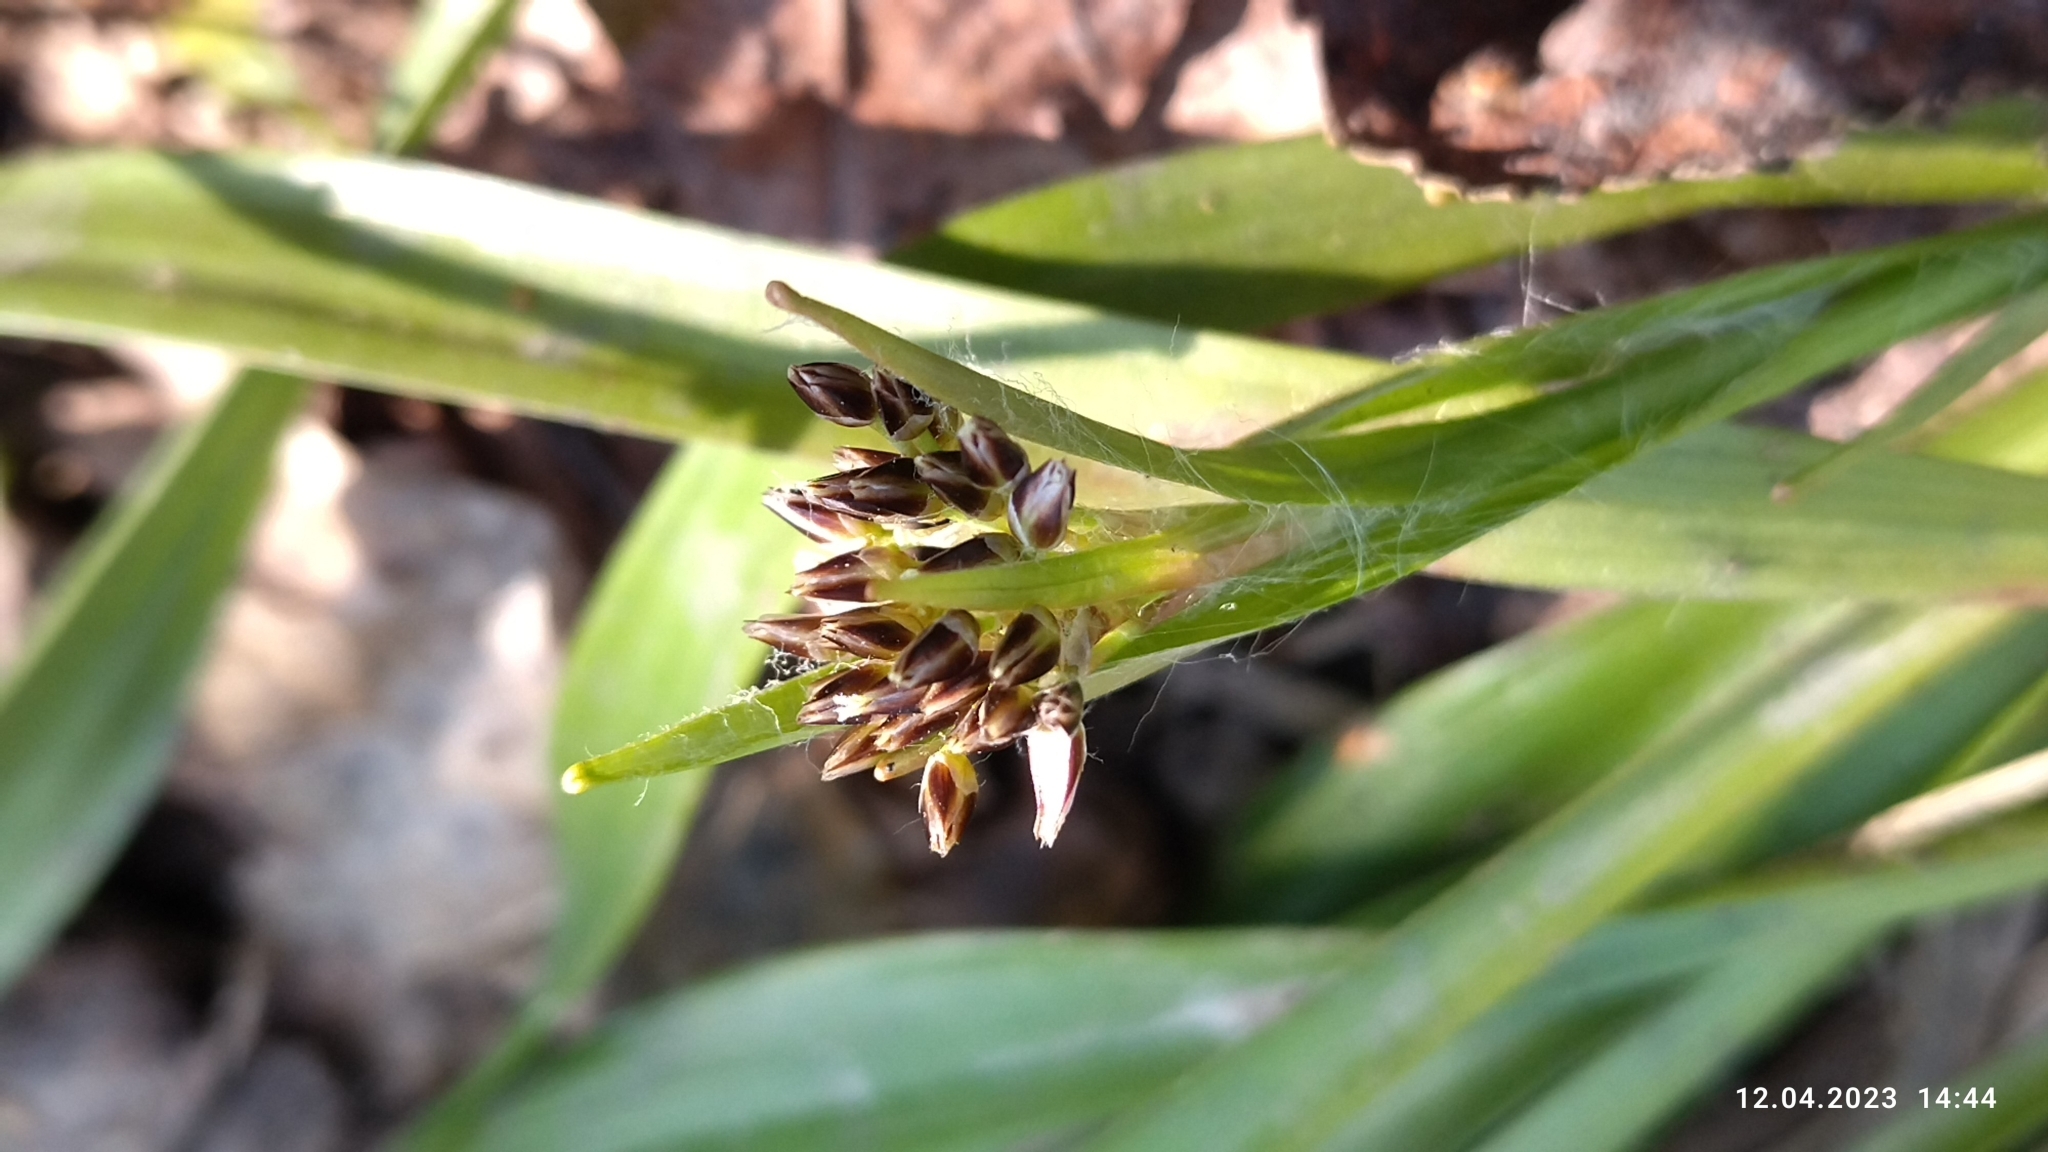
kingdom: Plantae
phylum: Tracheophyta
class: Liliopsida
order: Poales
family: Juncaceae
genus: Luzula
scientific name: Luzula pilosa
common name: Hairy wood-rush
